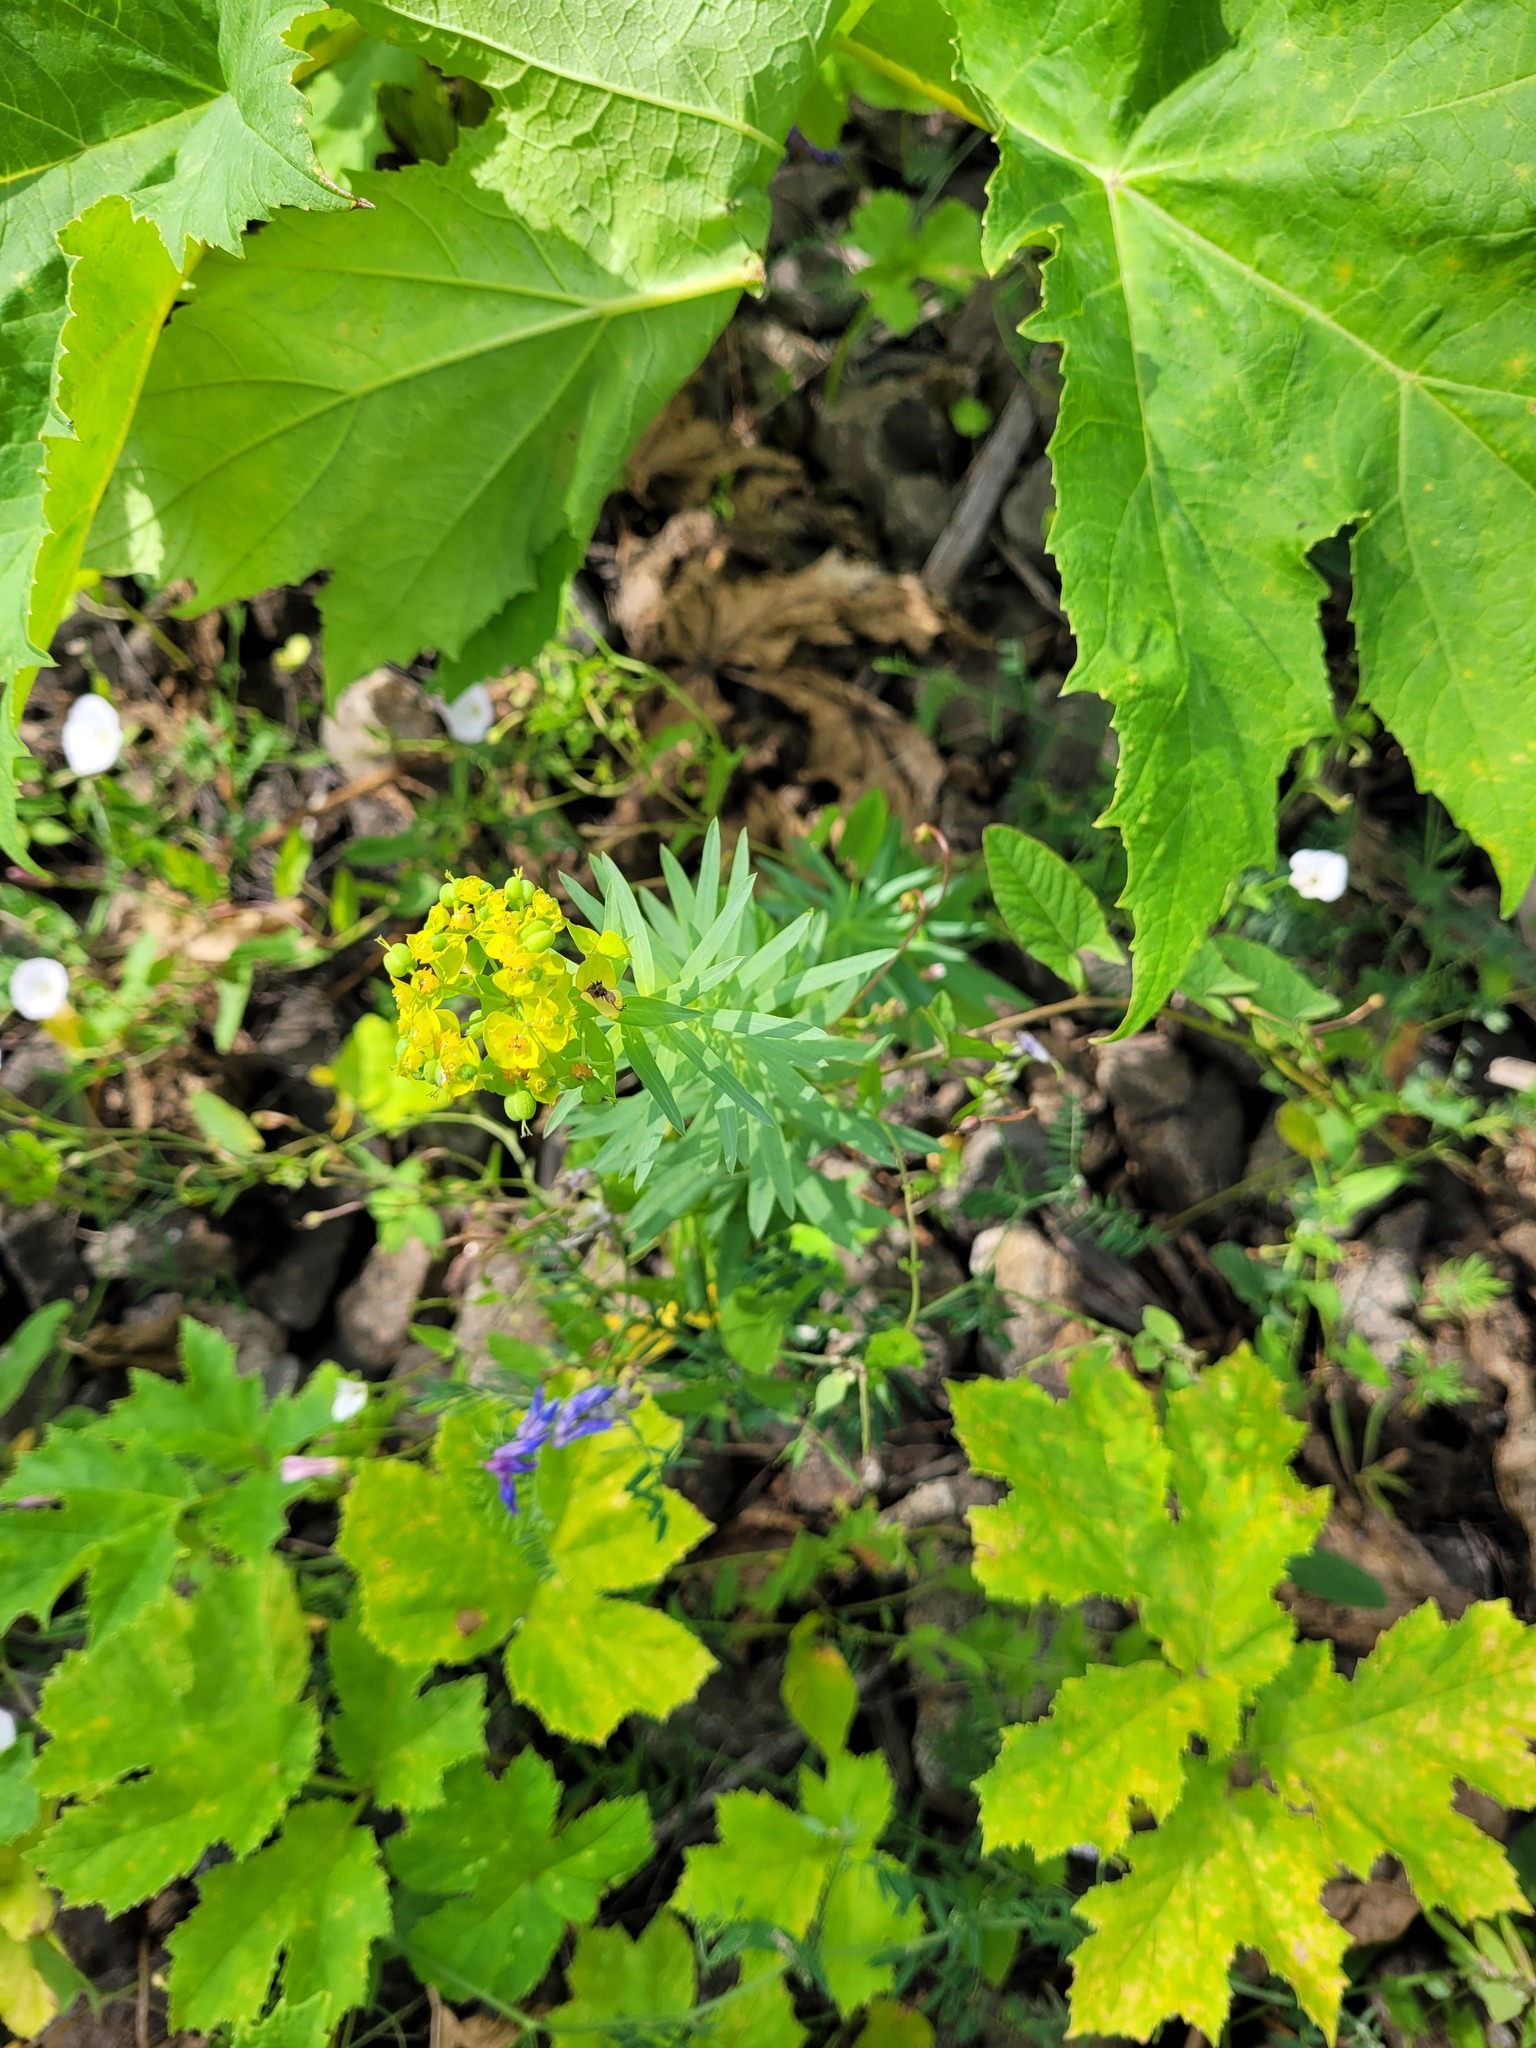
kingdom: Plantae
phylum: Tracheophyta
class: Magnoliopsida
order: Malpighiales
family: Euphorbiaceae
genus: Euphorbia
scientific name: Euphorbia virgata
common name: Leafy spurge
